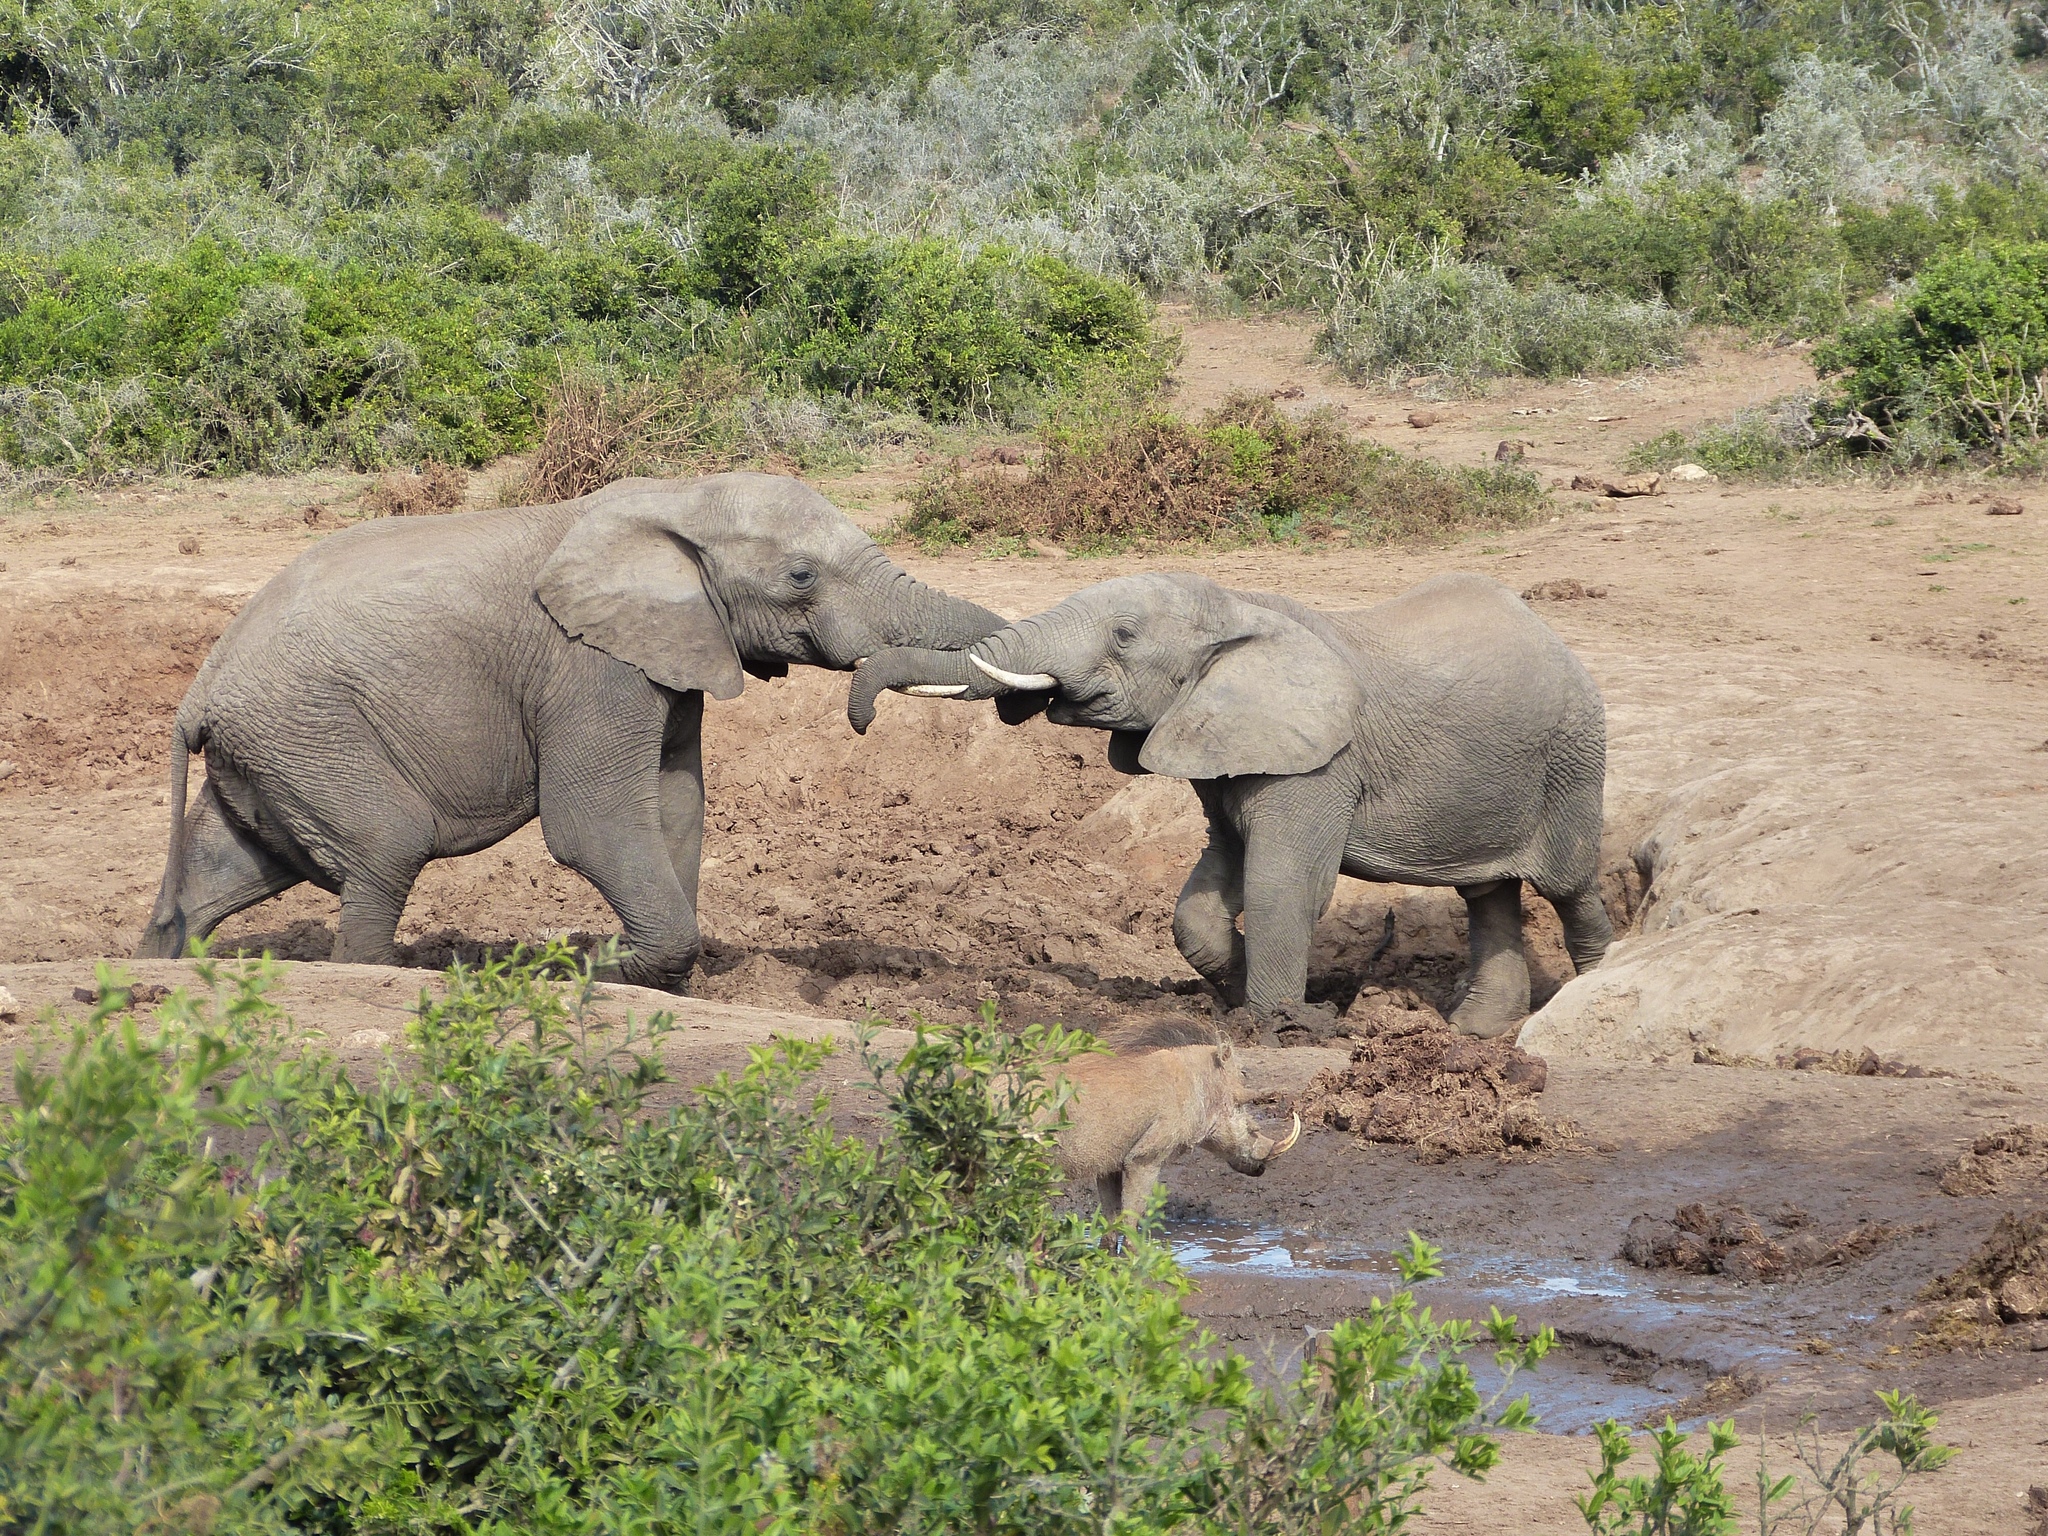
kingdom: Animalia
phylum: Chordata
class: Mammalia
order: Proboscidea
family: Elephantidae
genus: Loxodonta
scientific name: Loxodonta africana
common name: African elephant
